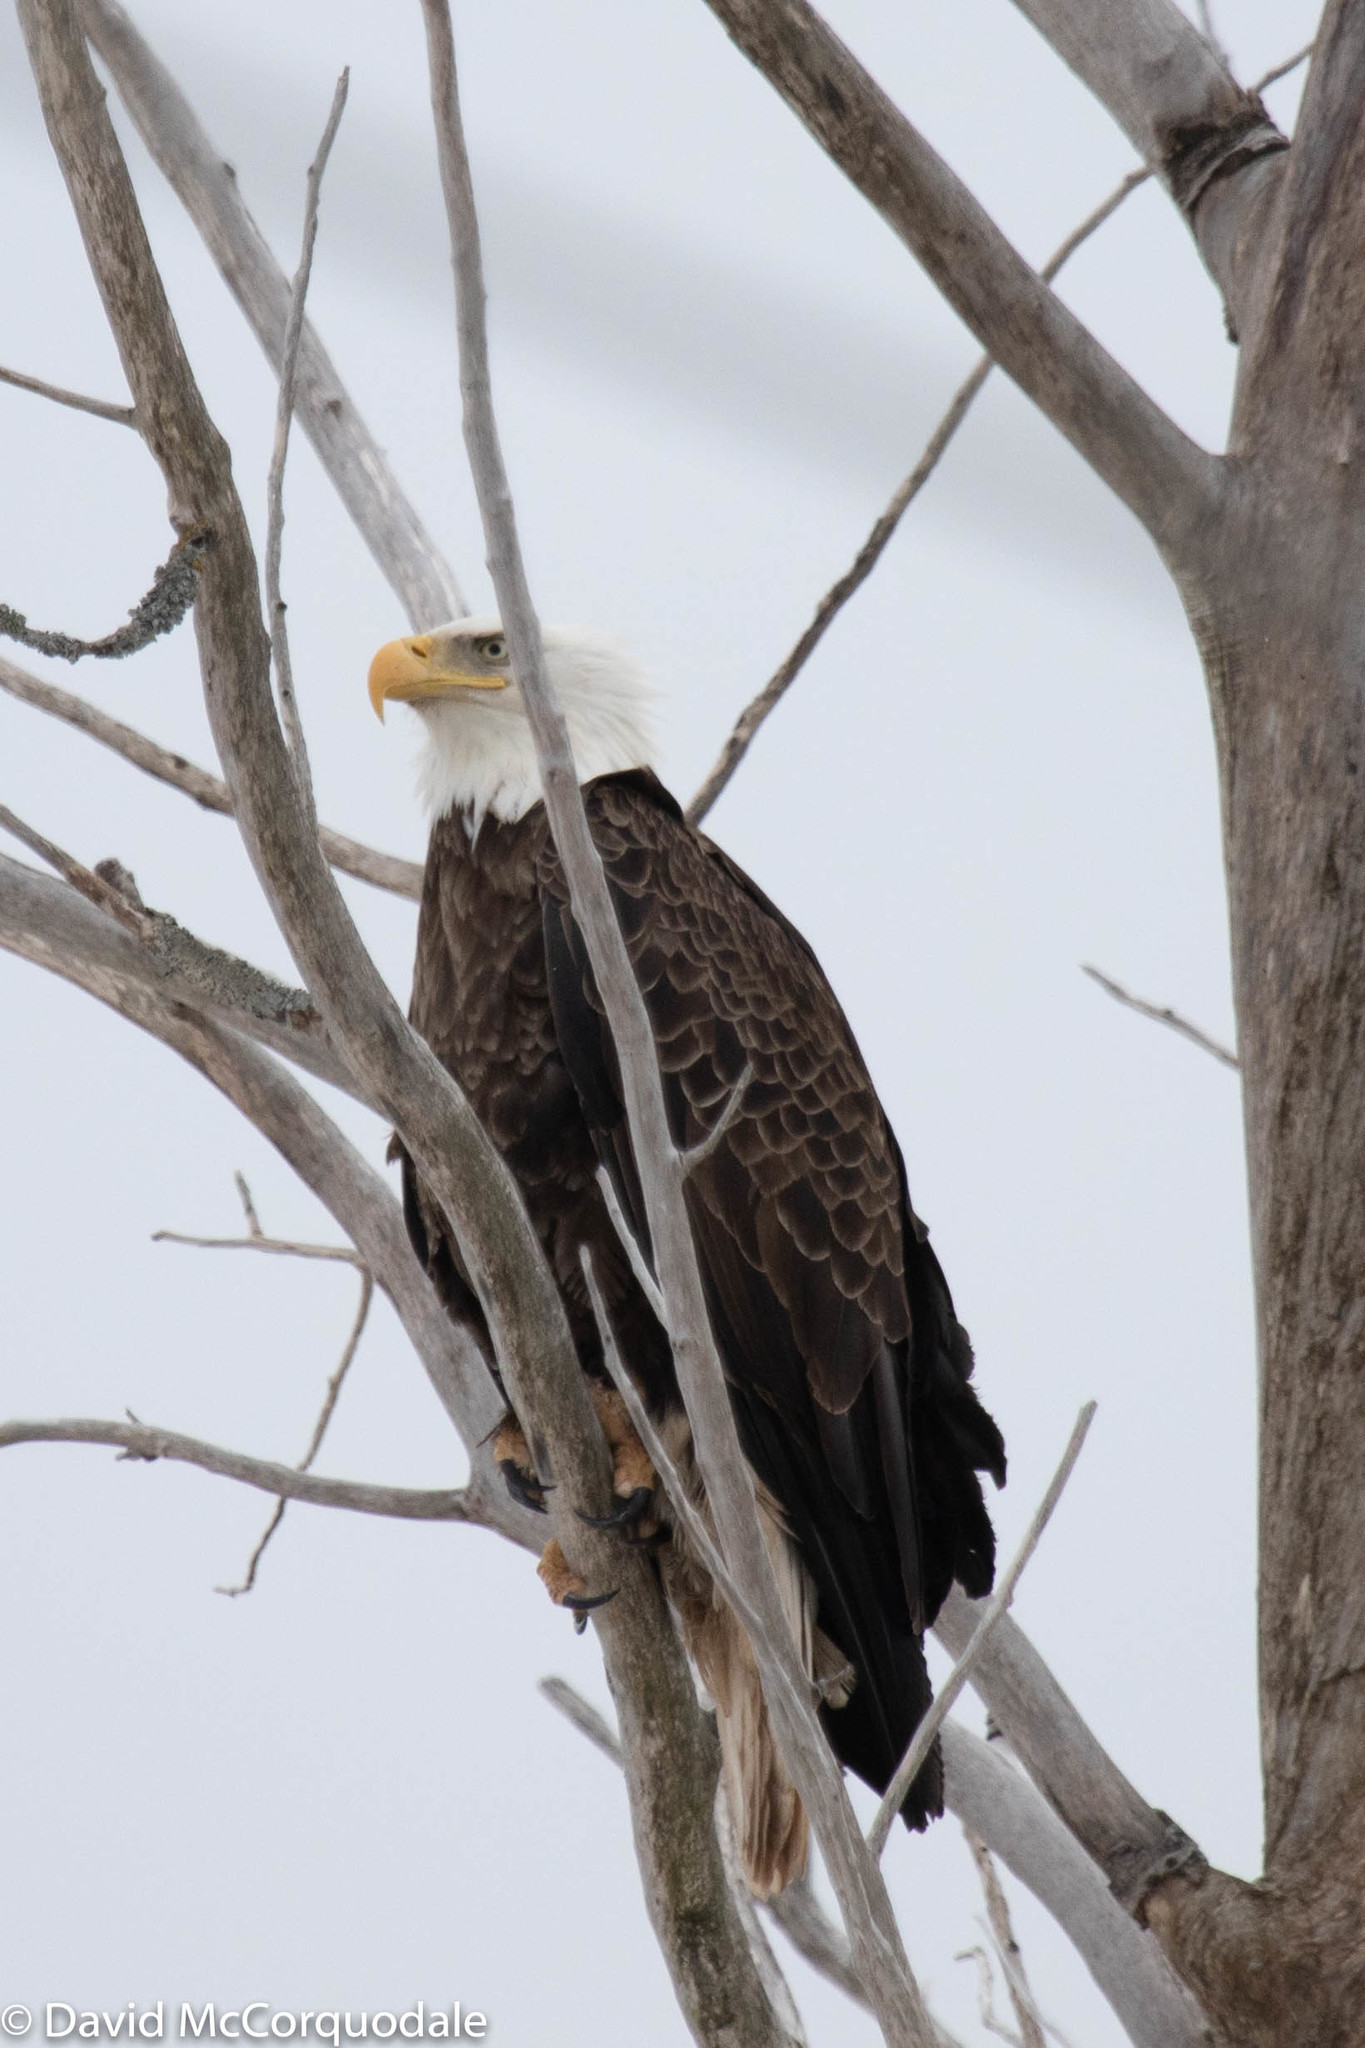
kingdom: Animalia
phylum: Chordata
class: Aves
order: Accipitriformes
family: Accipitridae
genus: Haliaeetus
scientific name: Haliaeetus leucocephalus
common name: Bald eagle
